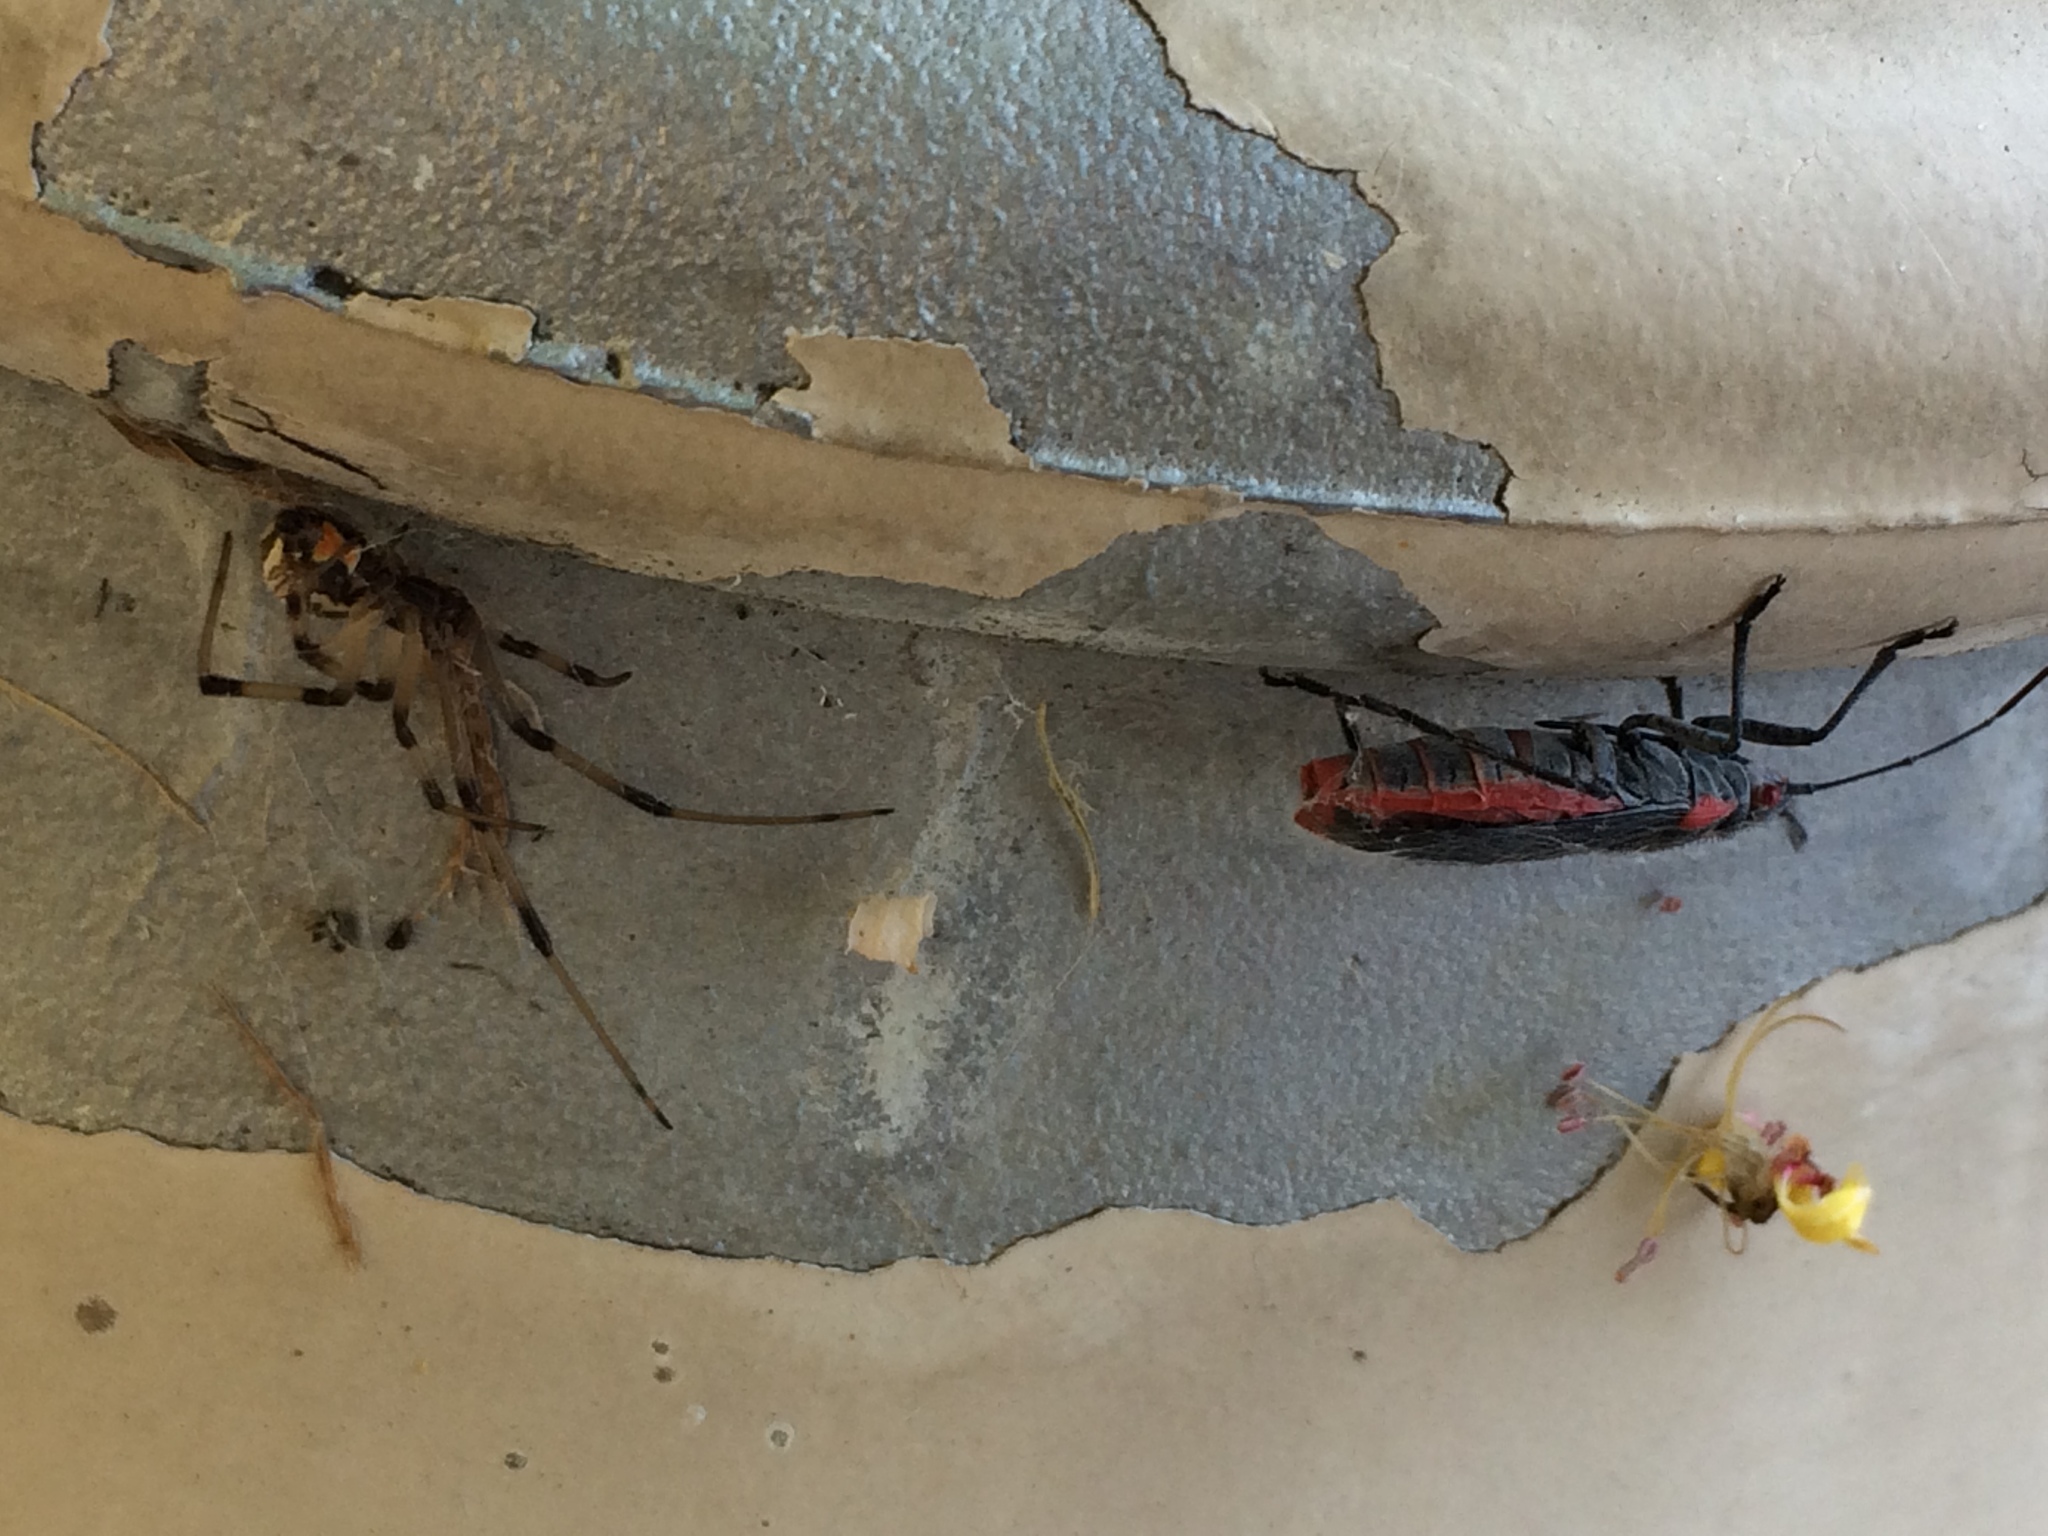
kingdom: Animalia
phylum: Arthropoda
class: Arachnida
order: Araneae
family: Theridiidae
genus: Latrodectus
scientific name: Latrodectus geometricus
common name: Brown widow spider
